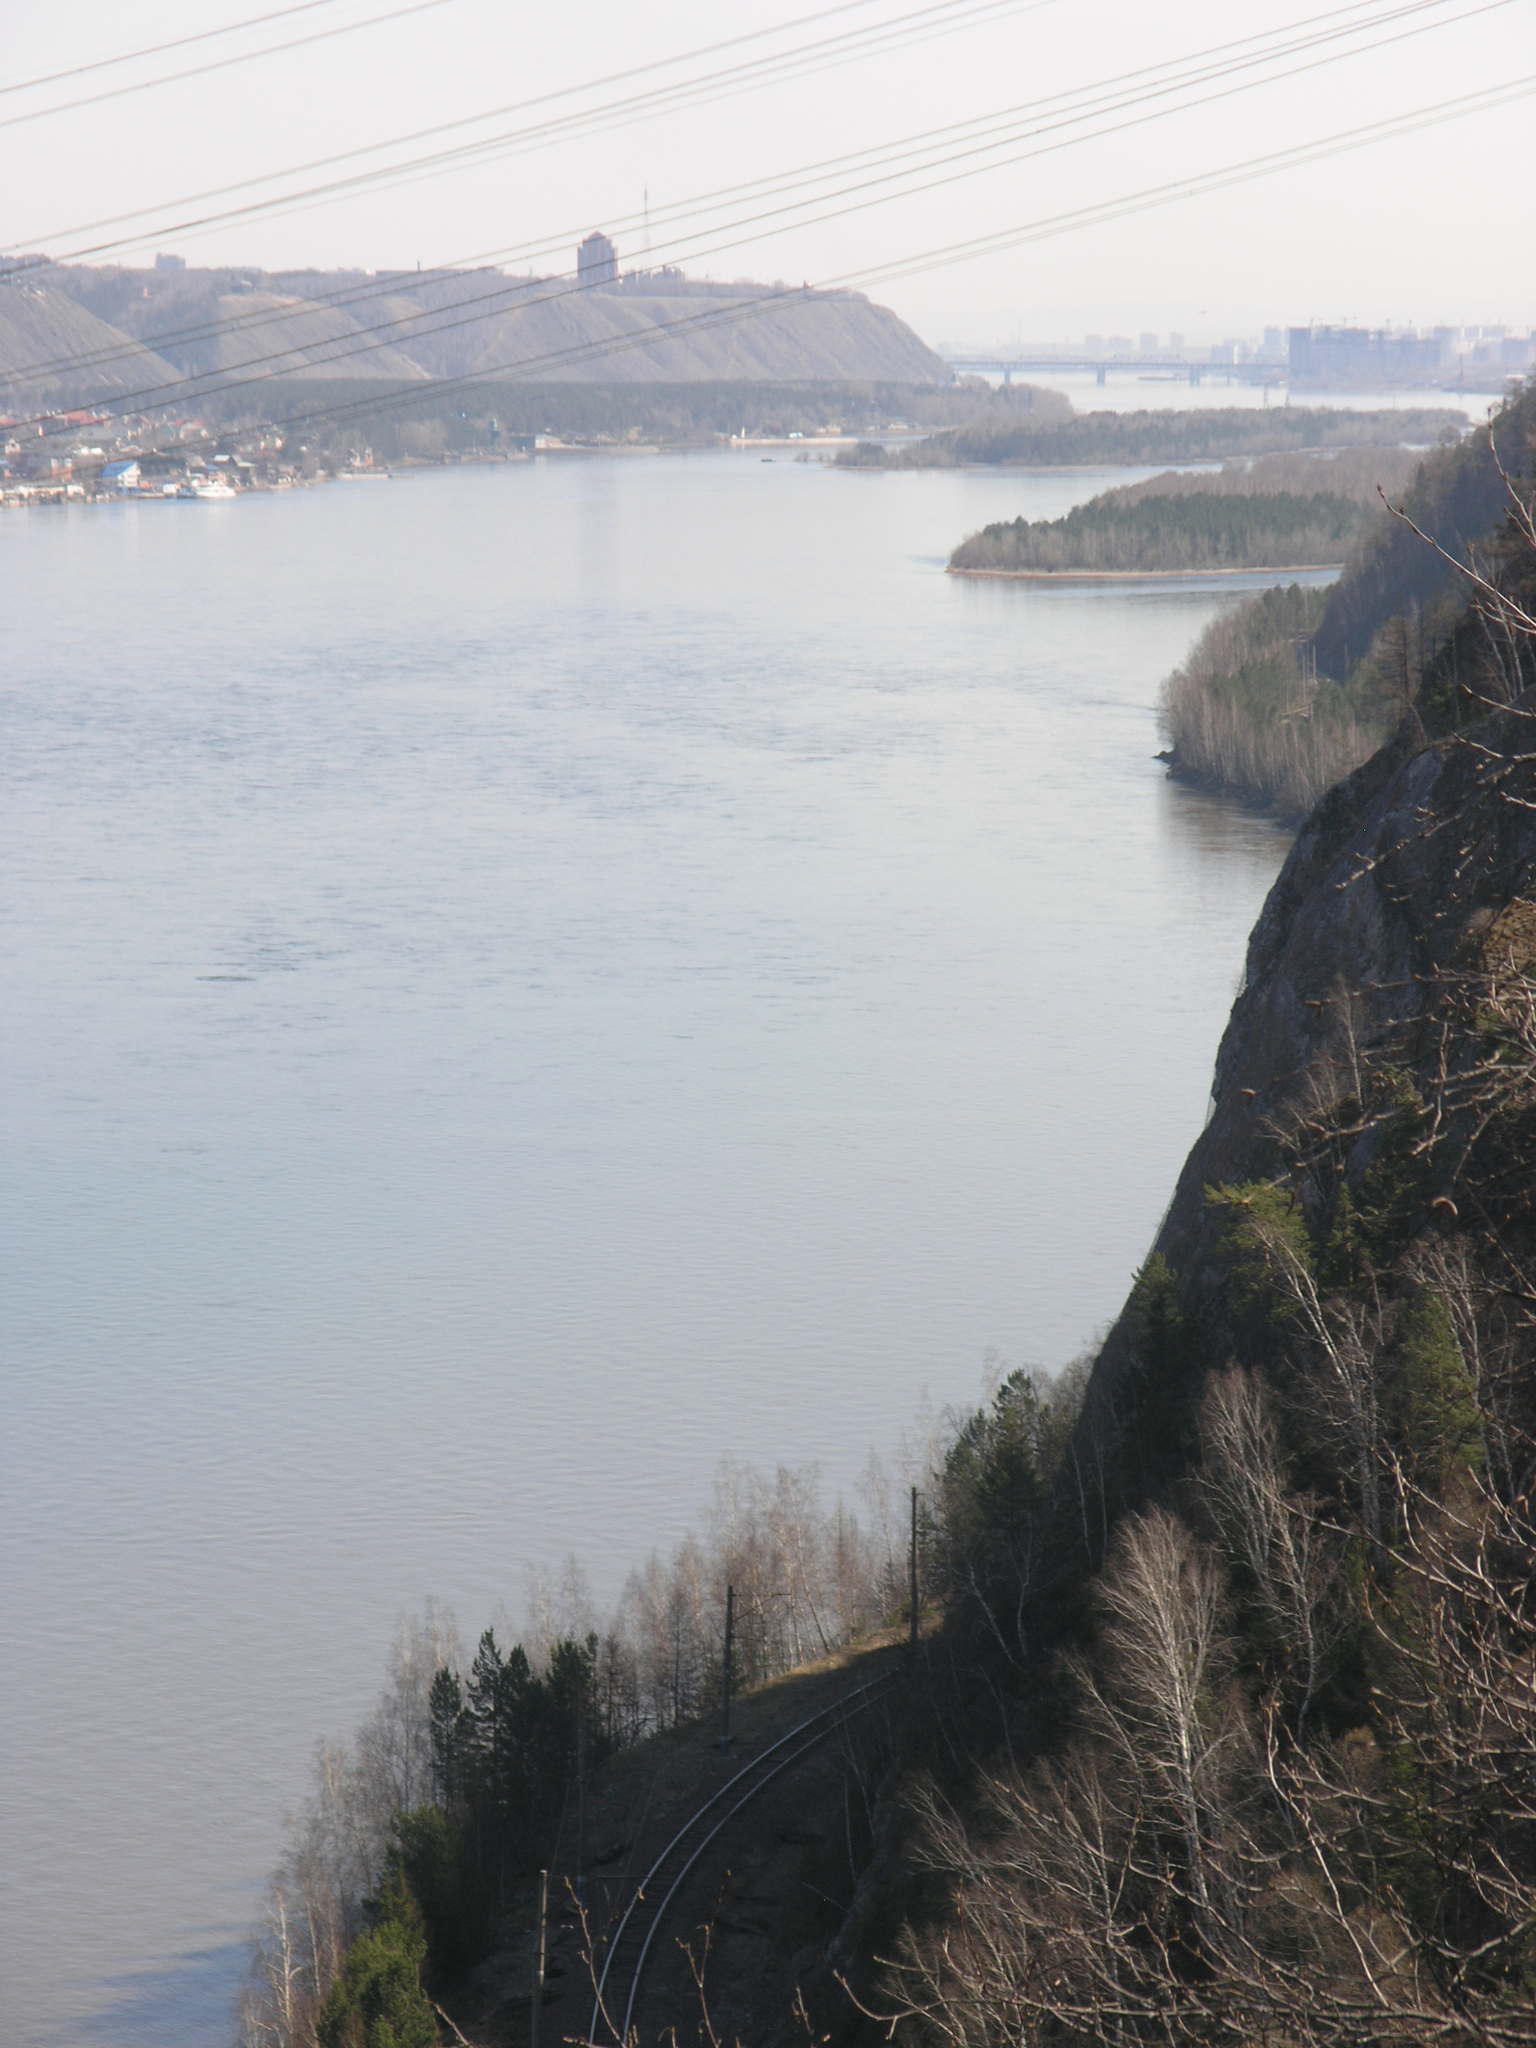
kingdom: Plantae
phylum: Tracheophyta
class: Magnoliopsida
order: Fagales
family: Betulaceae
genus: Betula
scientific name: Betula pendula
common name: Silver birch
